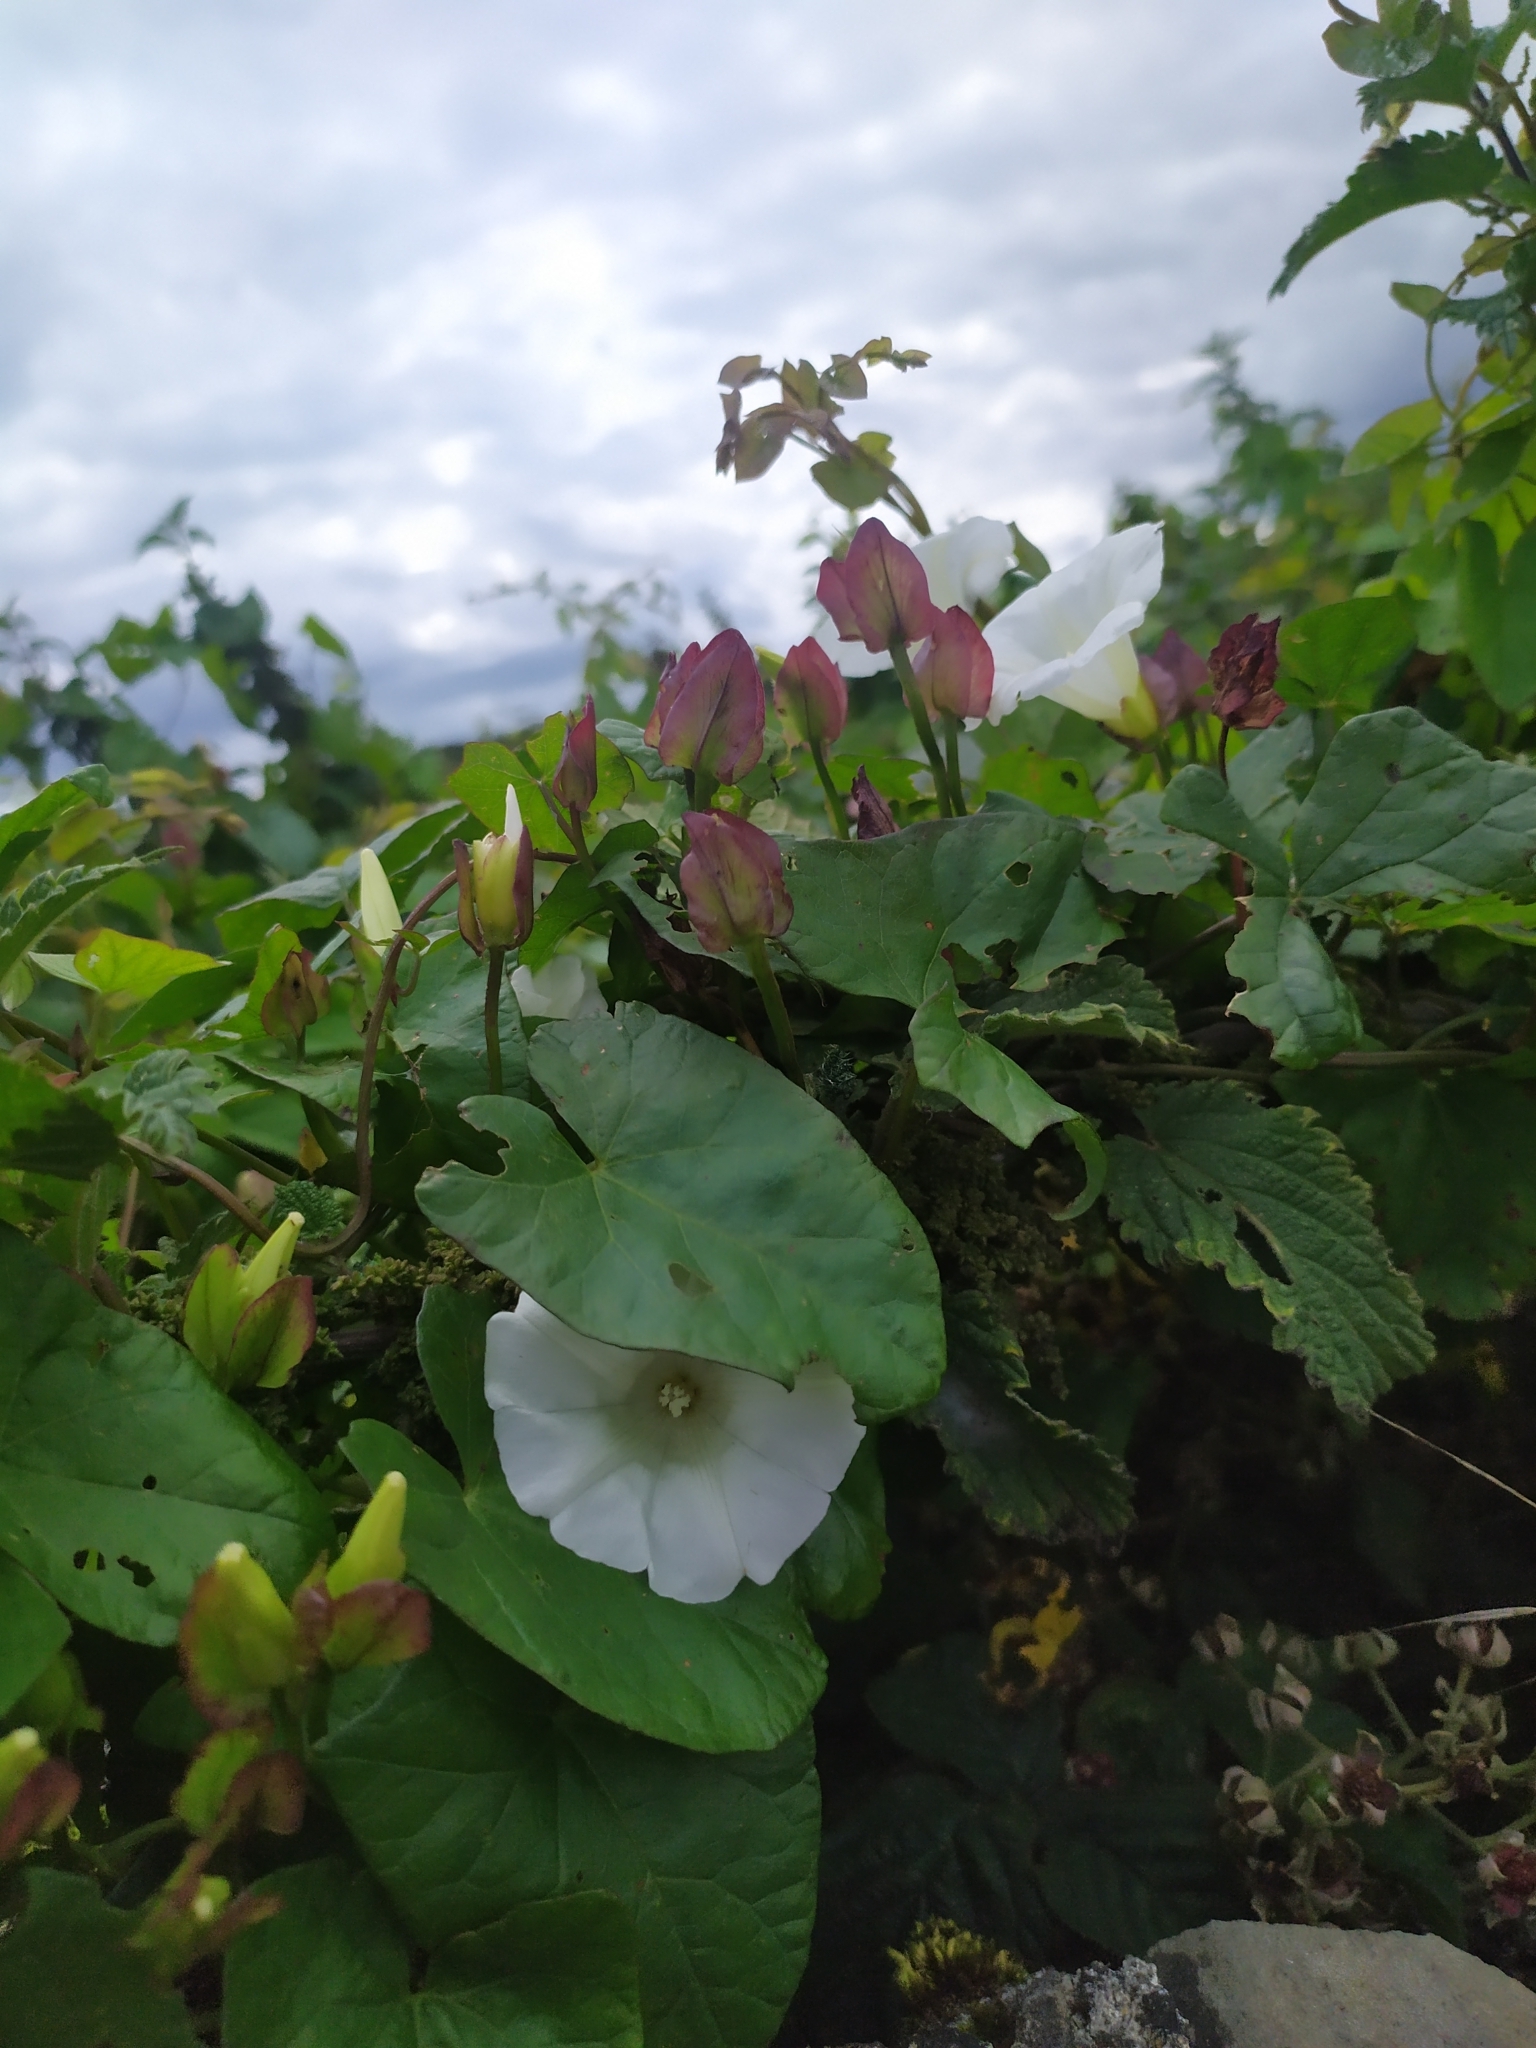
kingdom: Plantae
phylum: Tracheophyta
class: Magnoliopsida
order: Solanales
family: Convolvulaceae
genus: Calystegia
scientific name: Calystegia sepium
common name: Hedge bindweed
